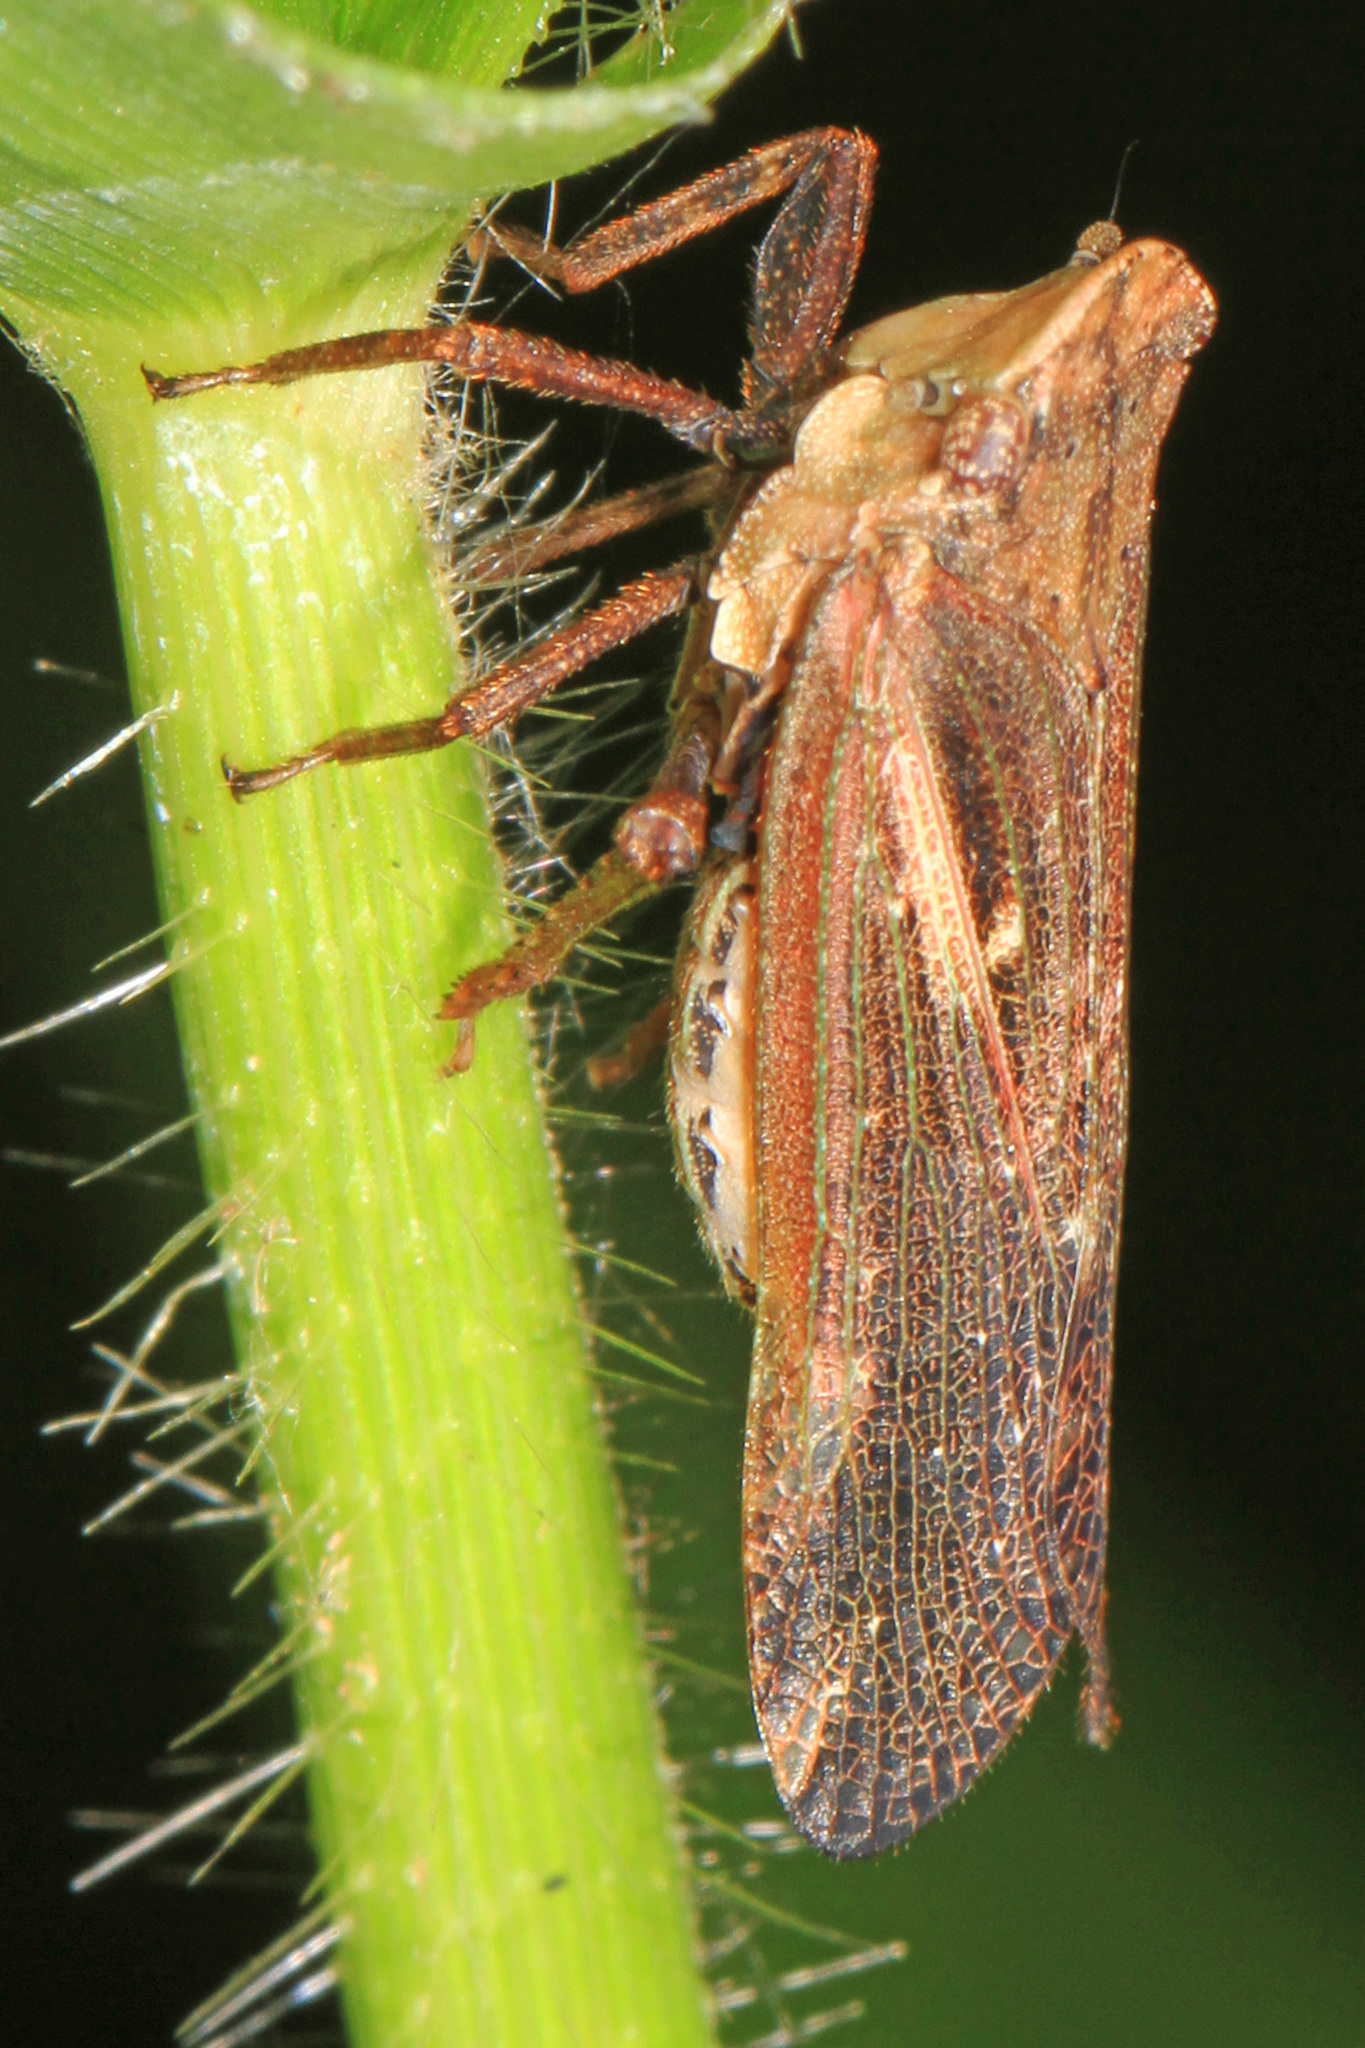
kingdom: Animalia
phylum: Arthropoda
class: Insecta
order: Hemiptera
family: Fulgoridae
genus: Cyrpoptus
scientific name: Cyrpoptus belfragei
